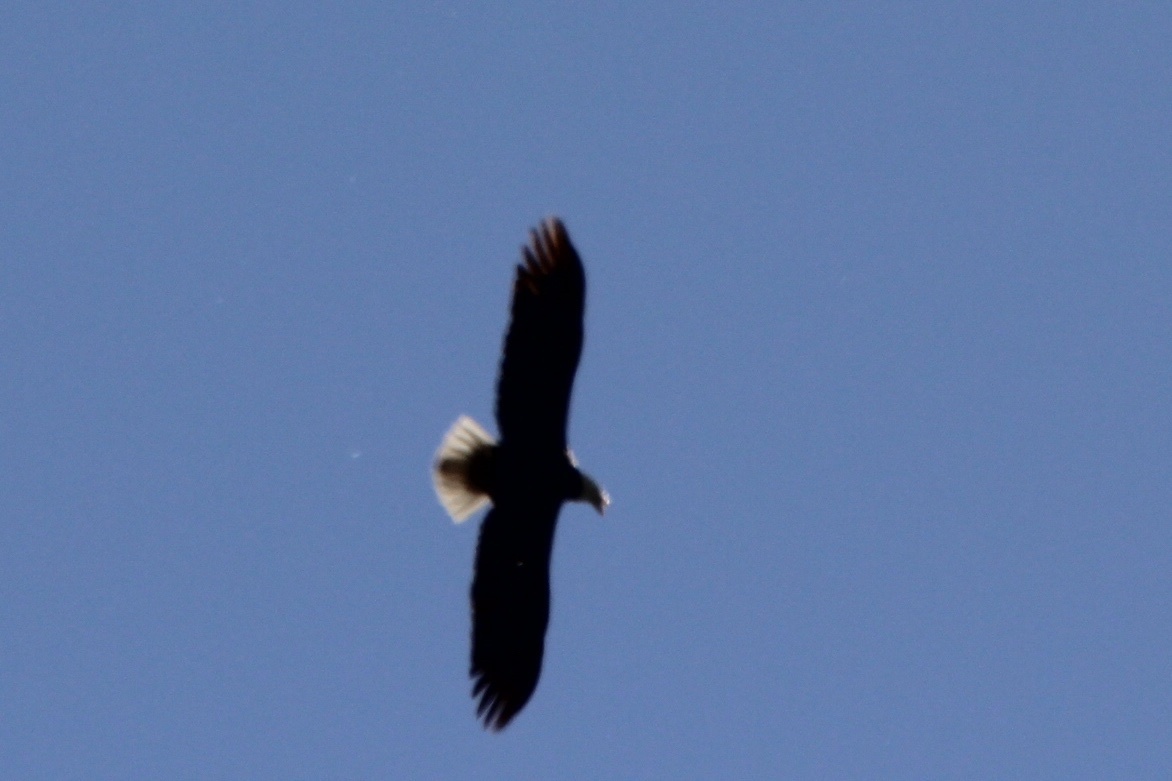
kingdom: Animalia
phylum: Chordata
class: Aves
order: Accipitriformes
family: Accipitridae
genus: Haliaeetus
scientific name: Haliaeetus leucocephalus
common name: Bald eagle
